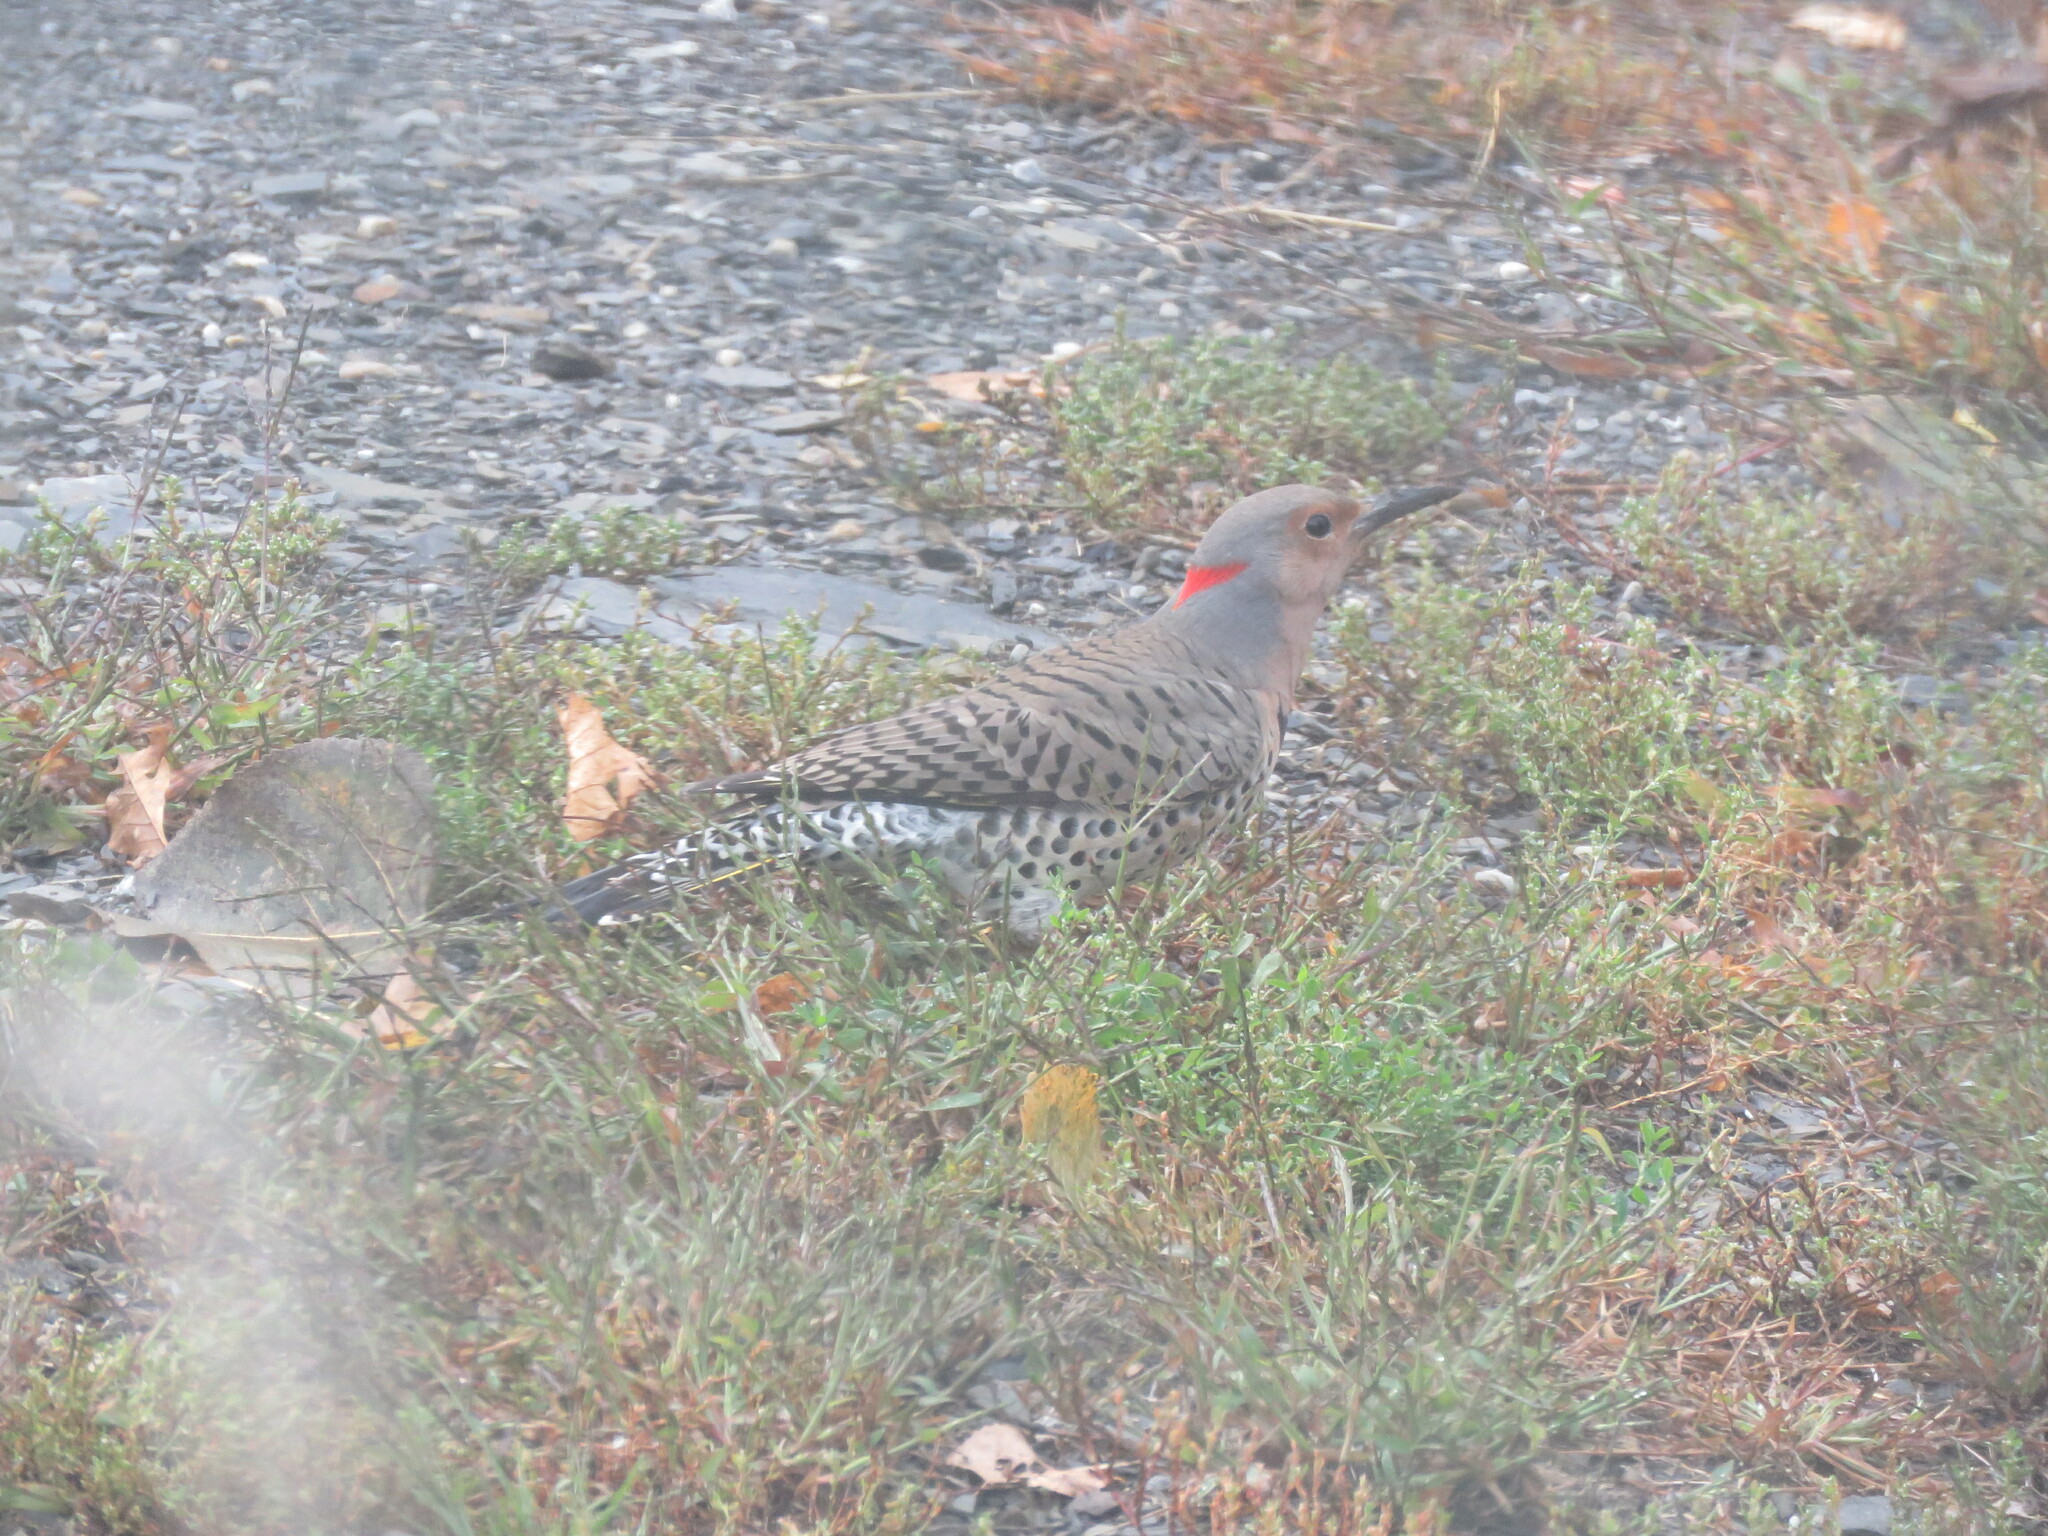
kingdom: Animalia
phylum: Chordata
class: Aves
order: Piciformes
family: Picidae
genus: Colaptes
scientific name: Colaptes auratus
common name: Northern flicker
